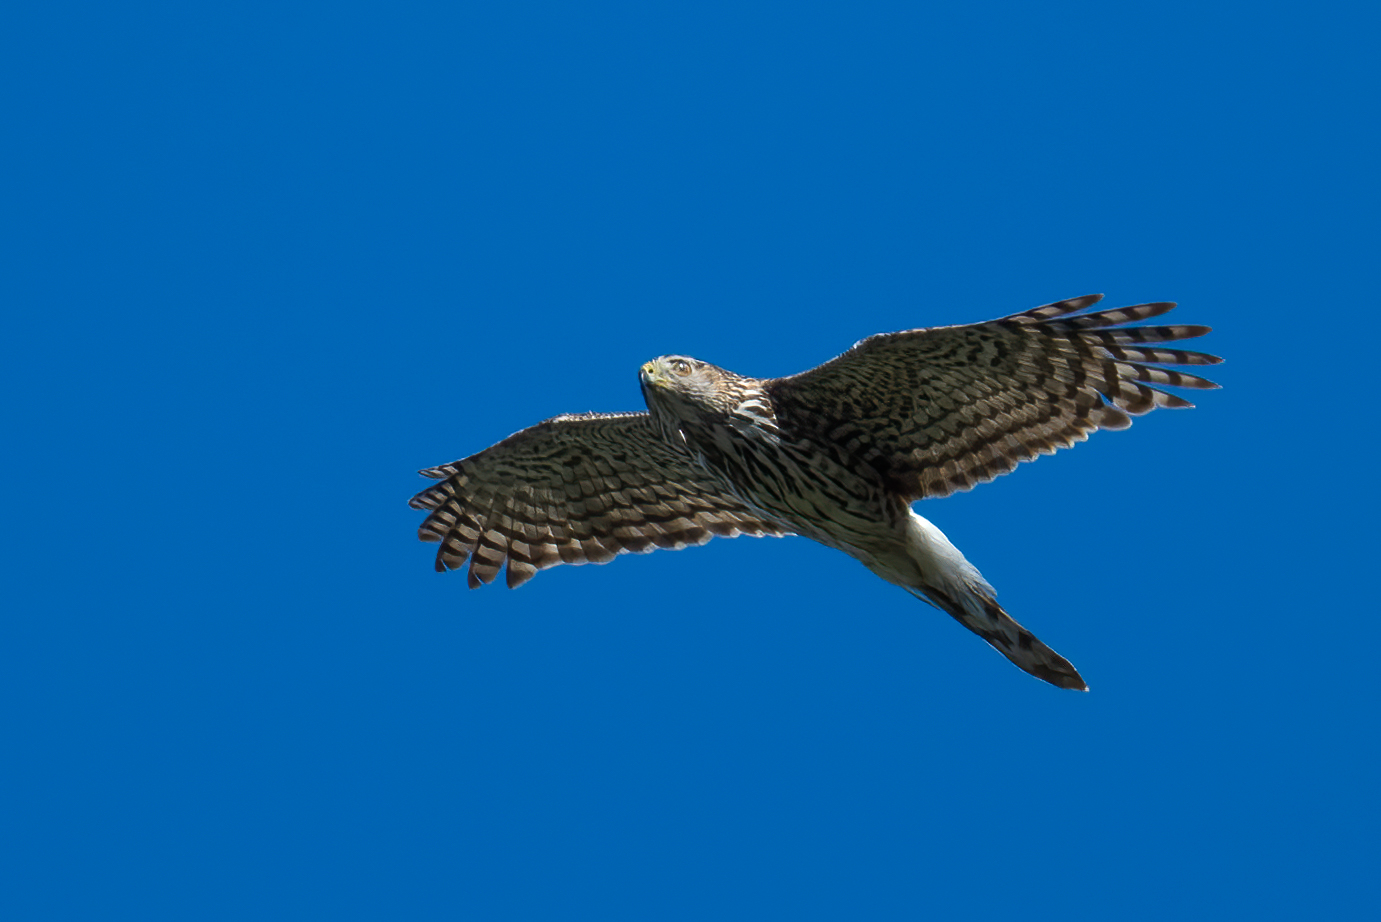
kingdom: Animalia
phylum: Chordata
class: Aves
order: Accipitriformes
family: Accipitridae
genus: Accipiter
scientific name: Accipiter cooperii
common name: Cooper's hawk
